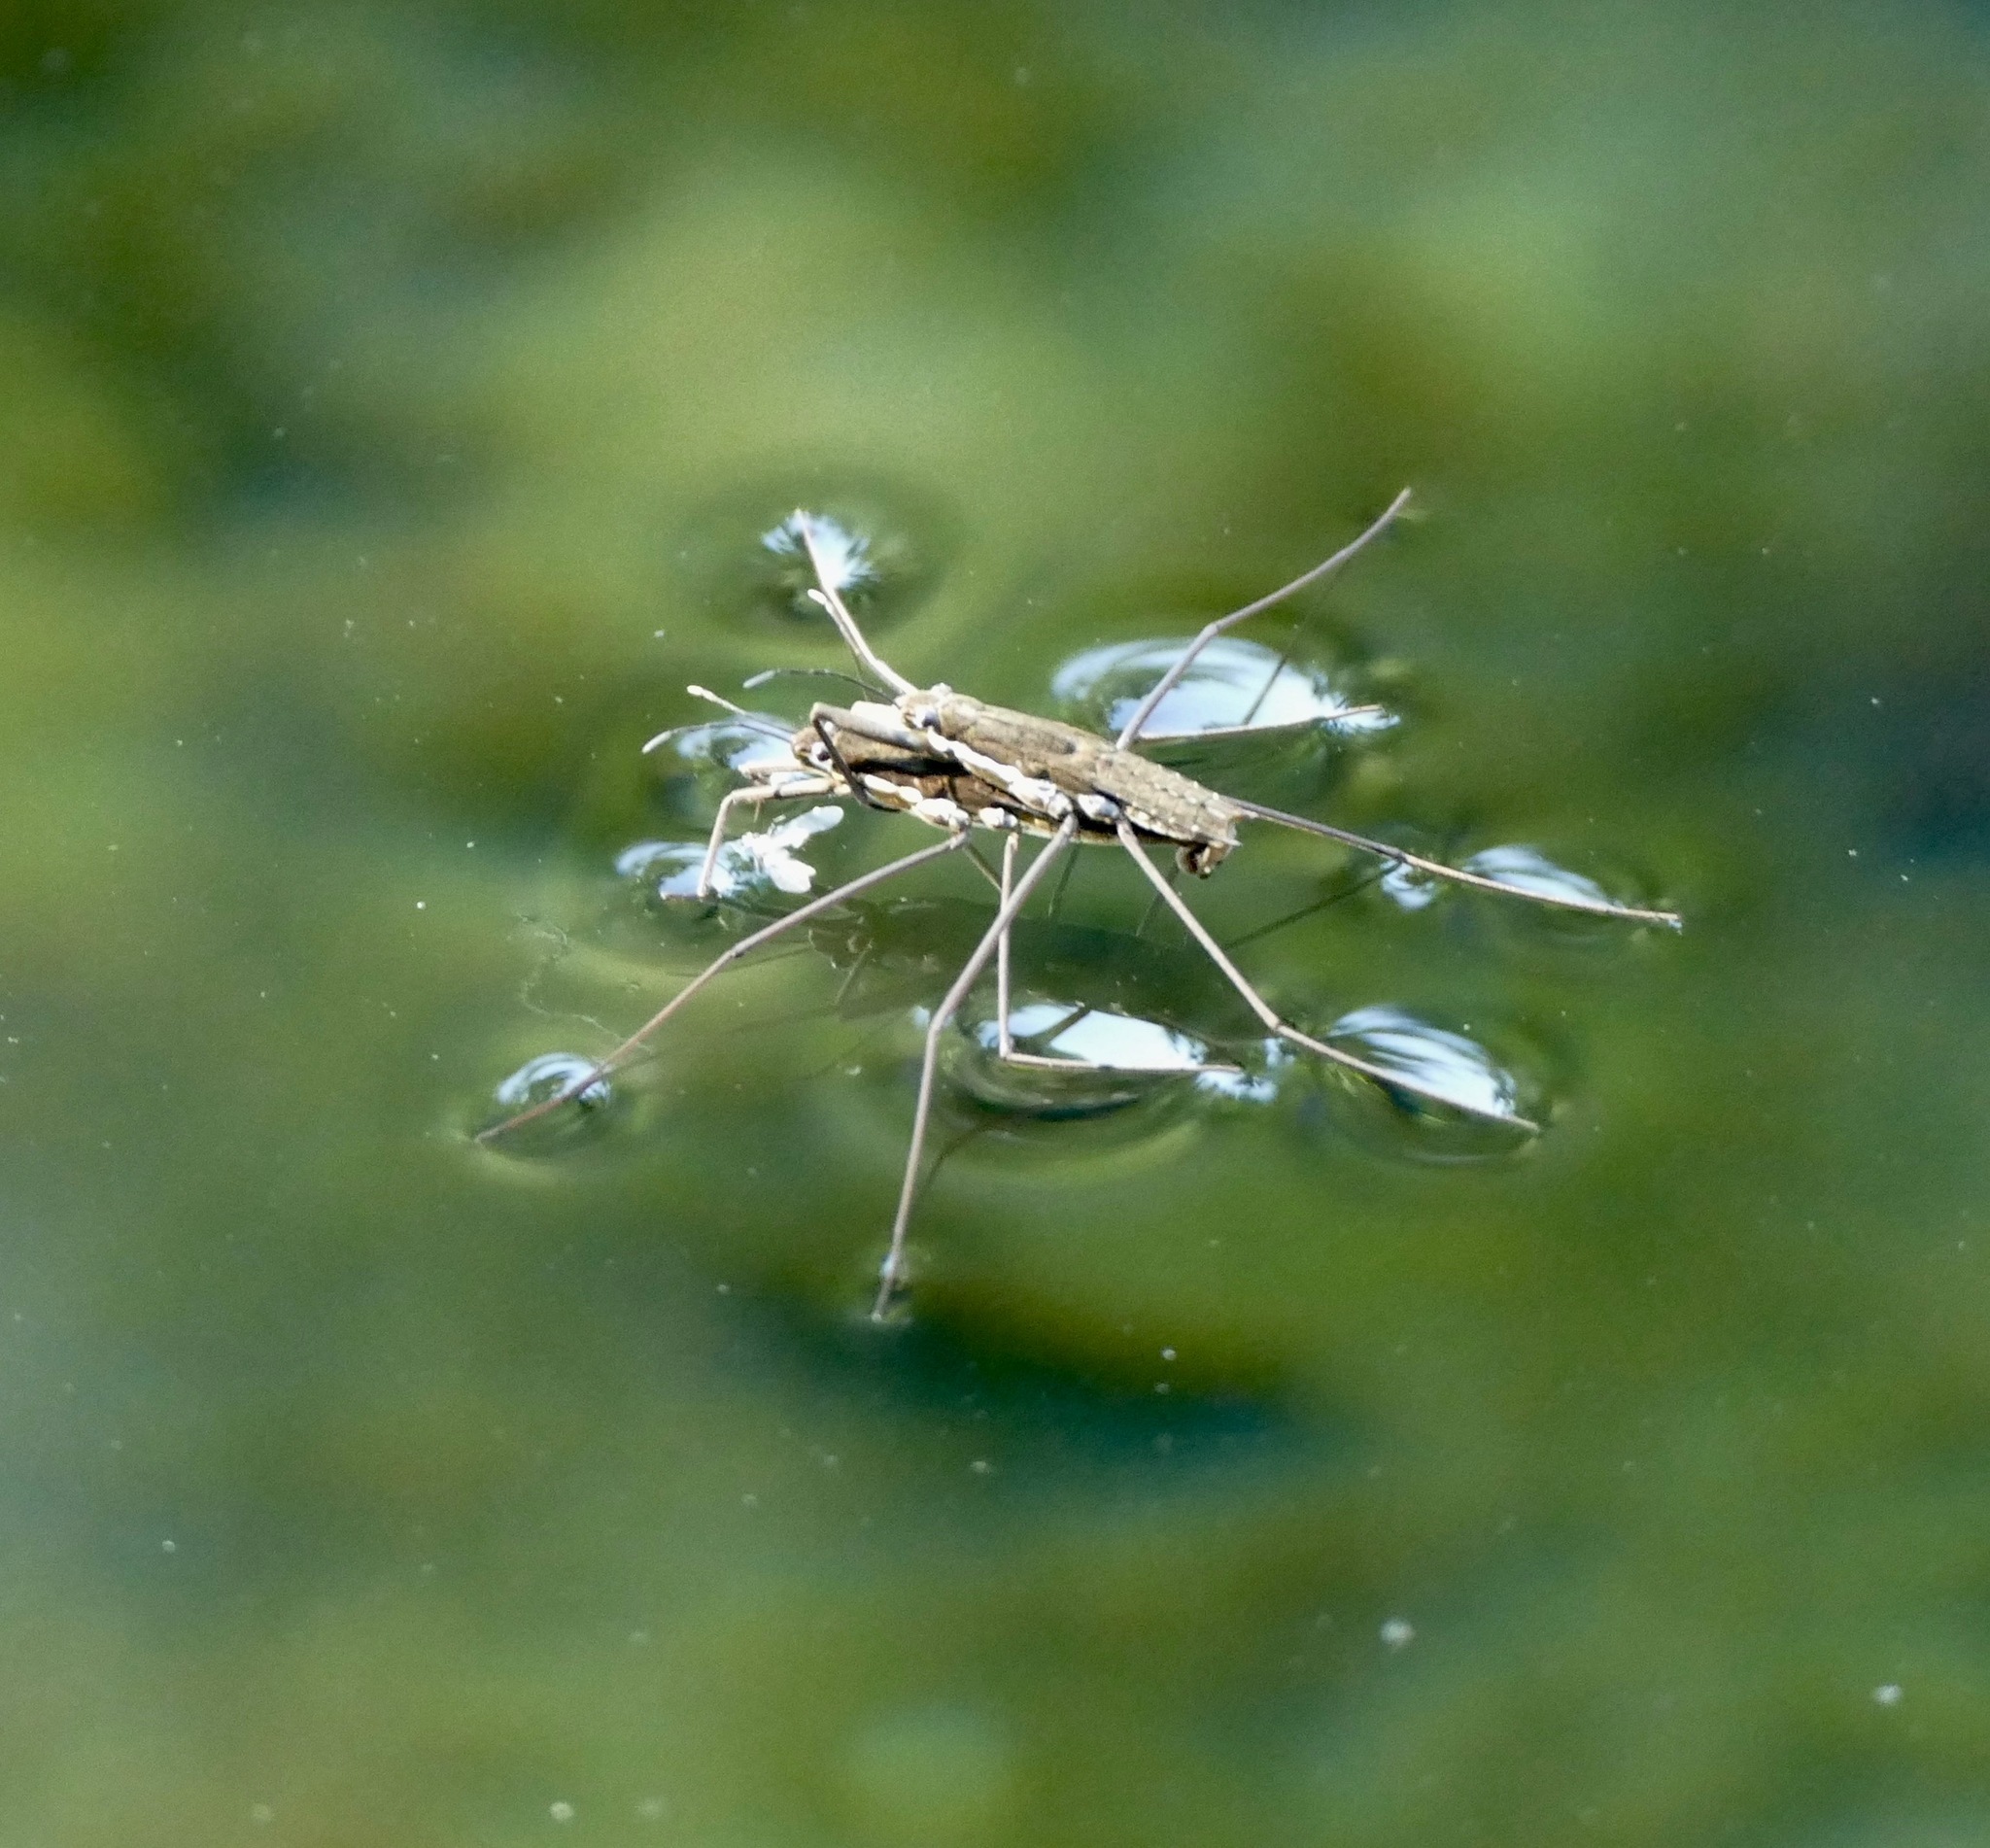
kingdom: Animalia
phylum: Arthropoda
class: Insecta
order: Hemiptera
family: Gerridae
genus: Aquarius
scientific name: Aquarius remigis
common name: Common water strider
